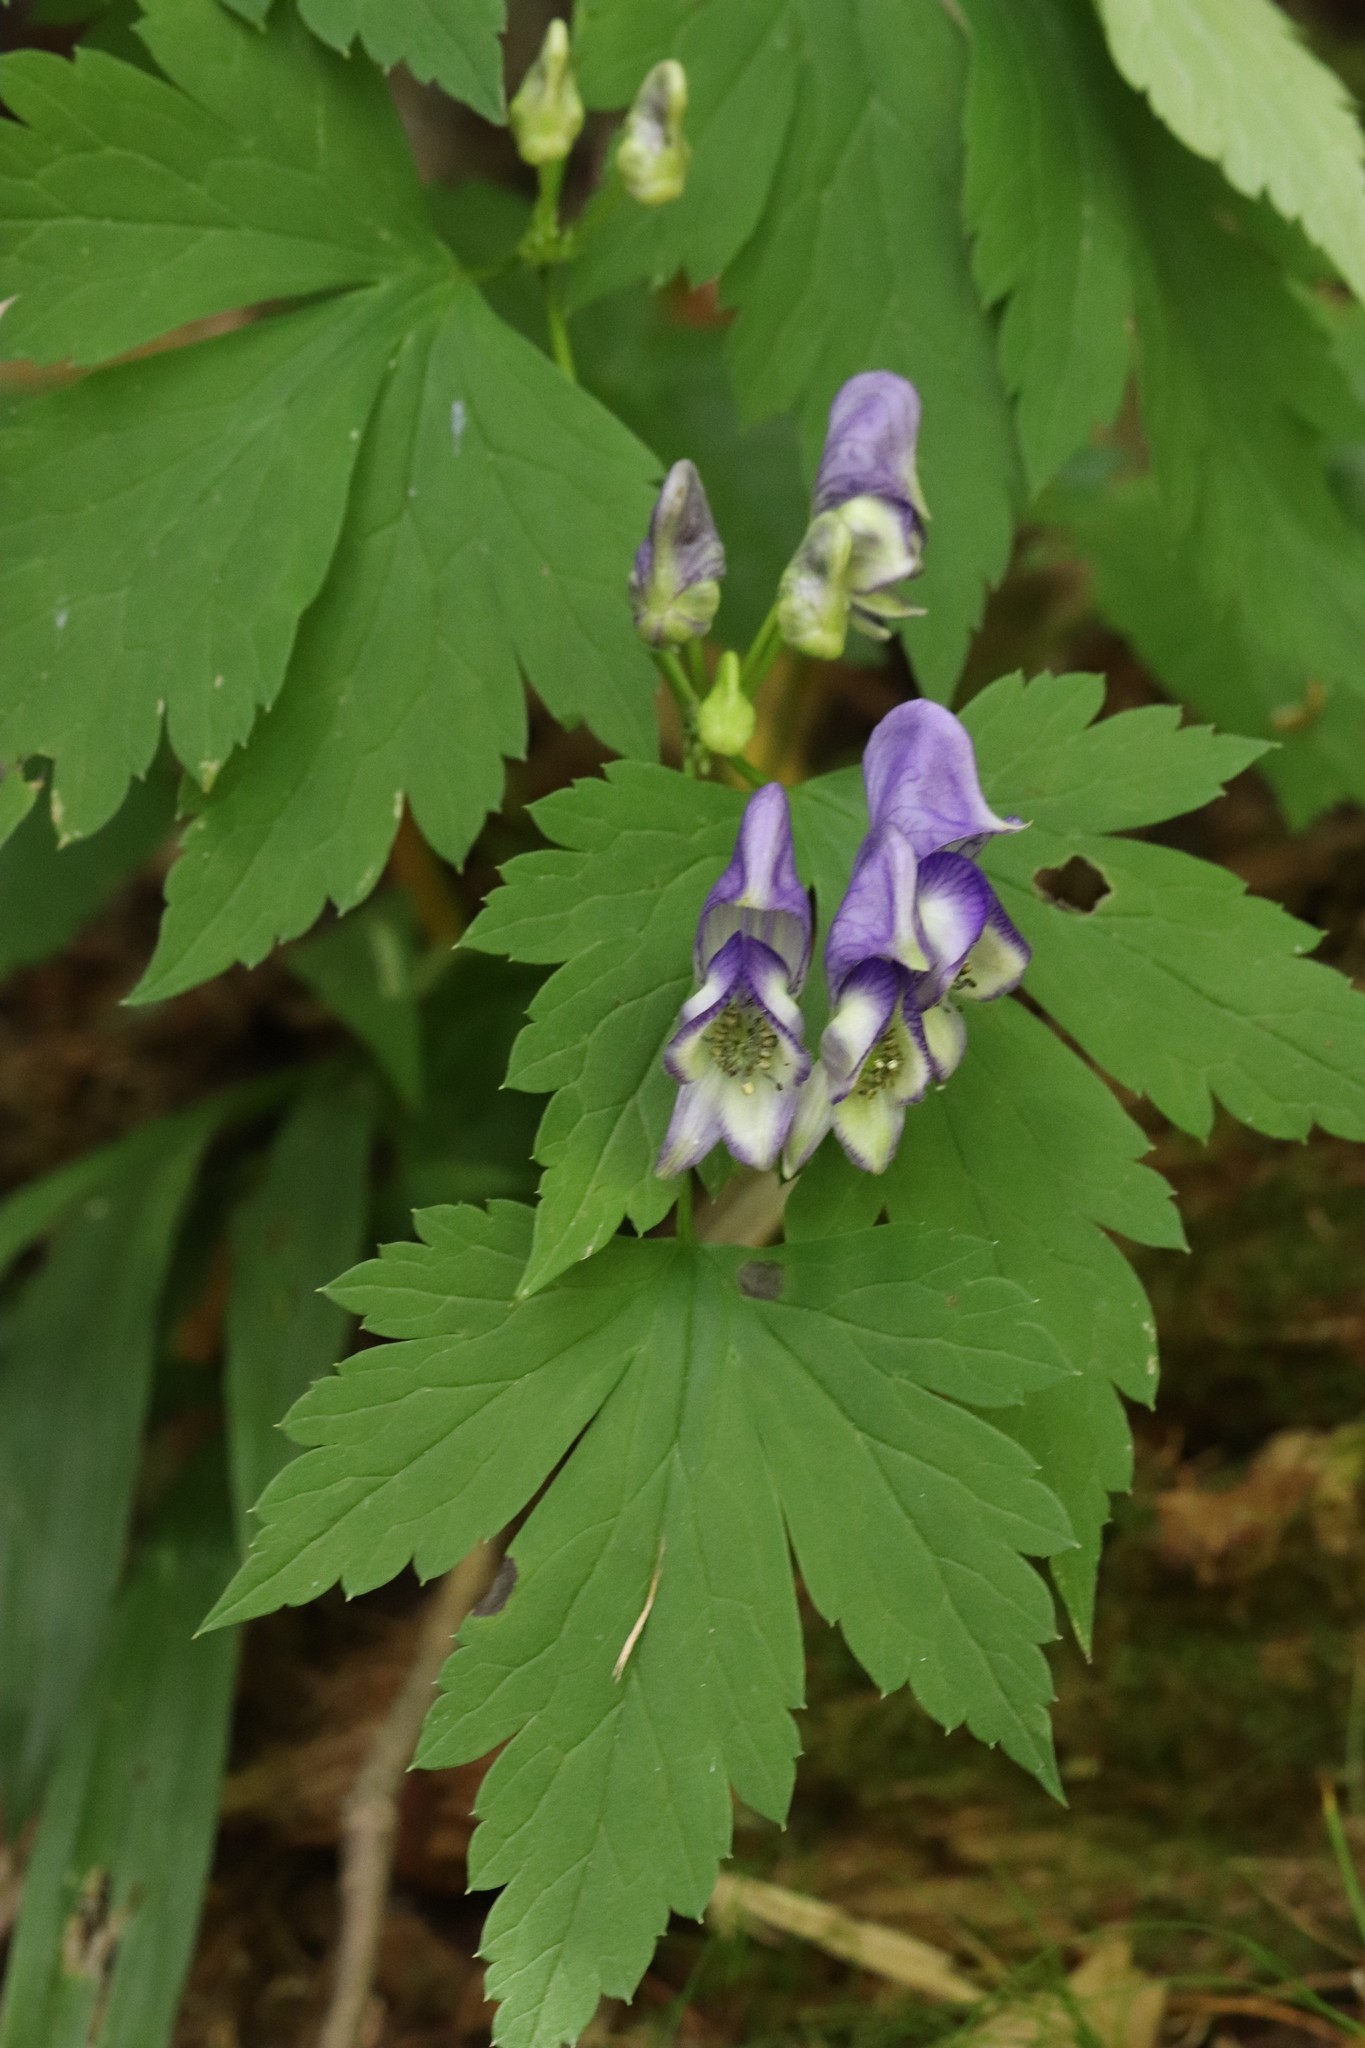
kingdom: Plantae
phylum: Tracheophyta
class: Magnoliopsida
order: Ranunculales
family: Ranunculaceae
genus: Aconitum
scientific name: Aconitum sczukinii
